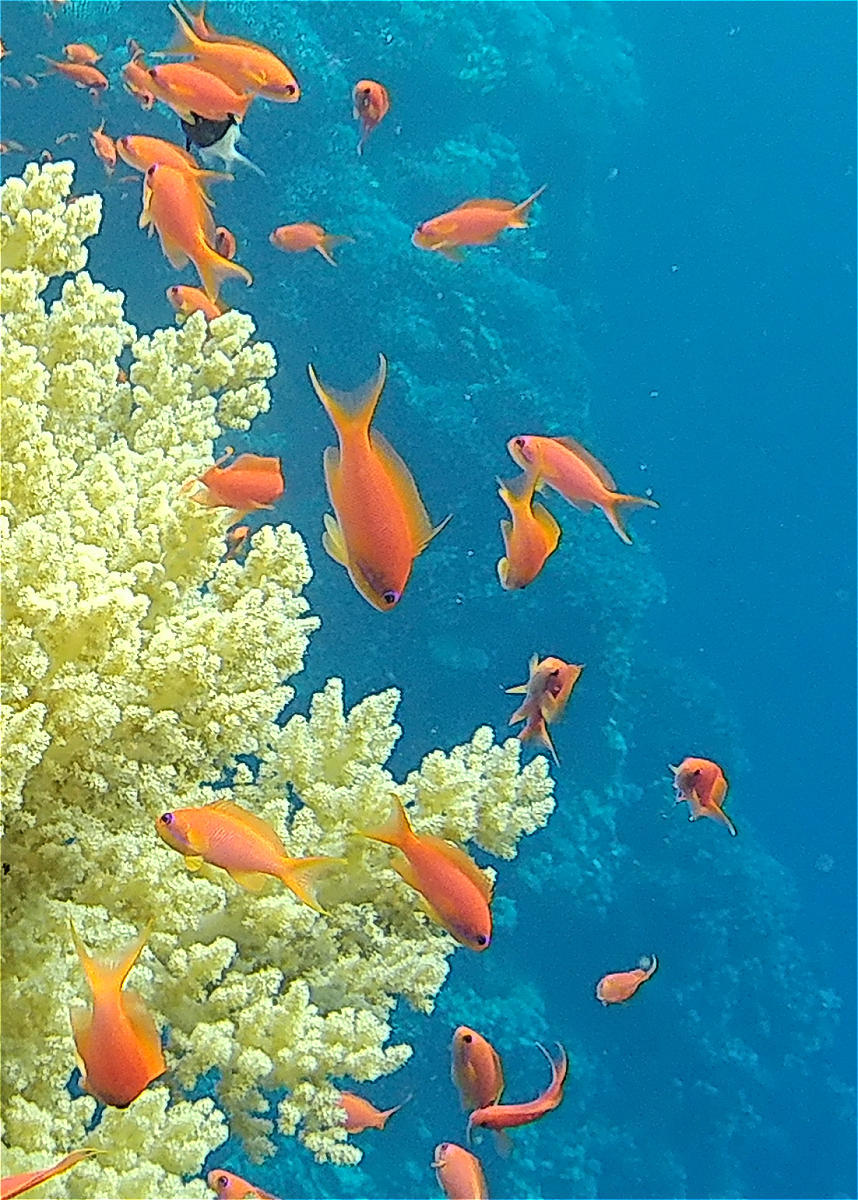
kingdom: Animalia
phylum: Chordata
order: Perciformes
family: Serranidae
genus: Pseudanthias
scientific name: Pseudanthias squamipinnis
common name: Scalefin anthias
